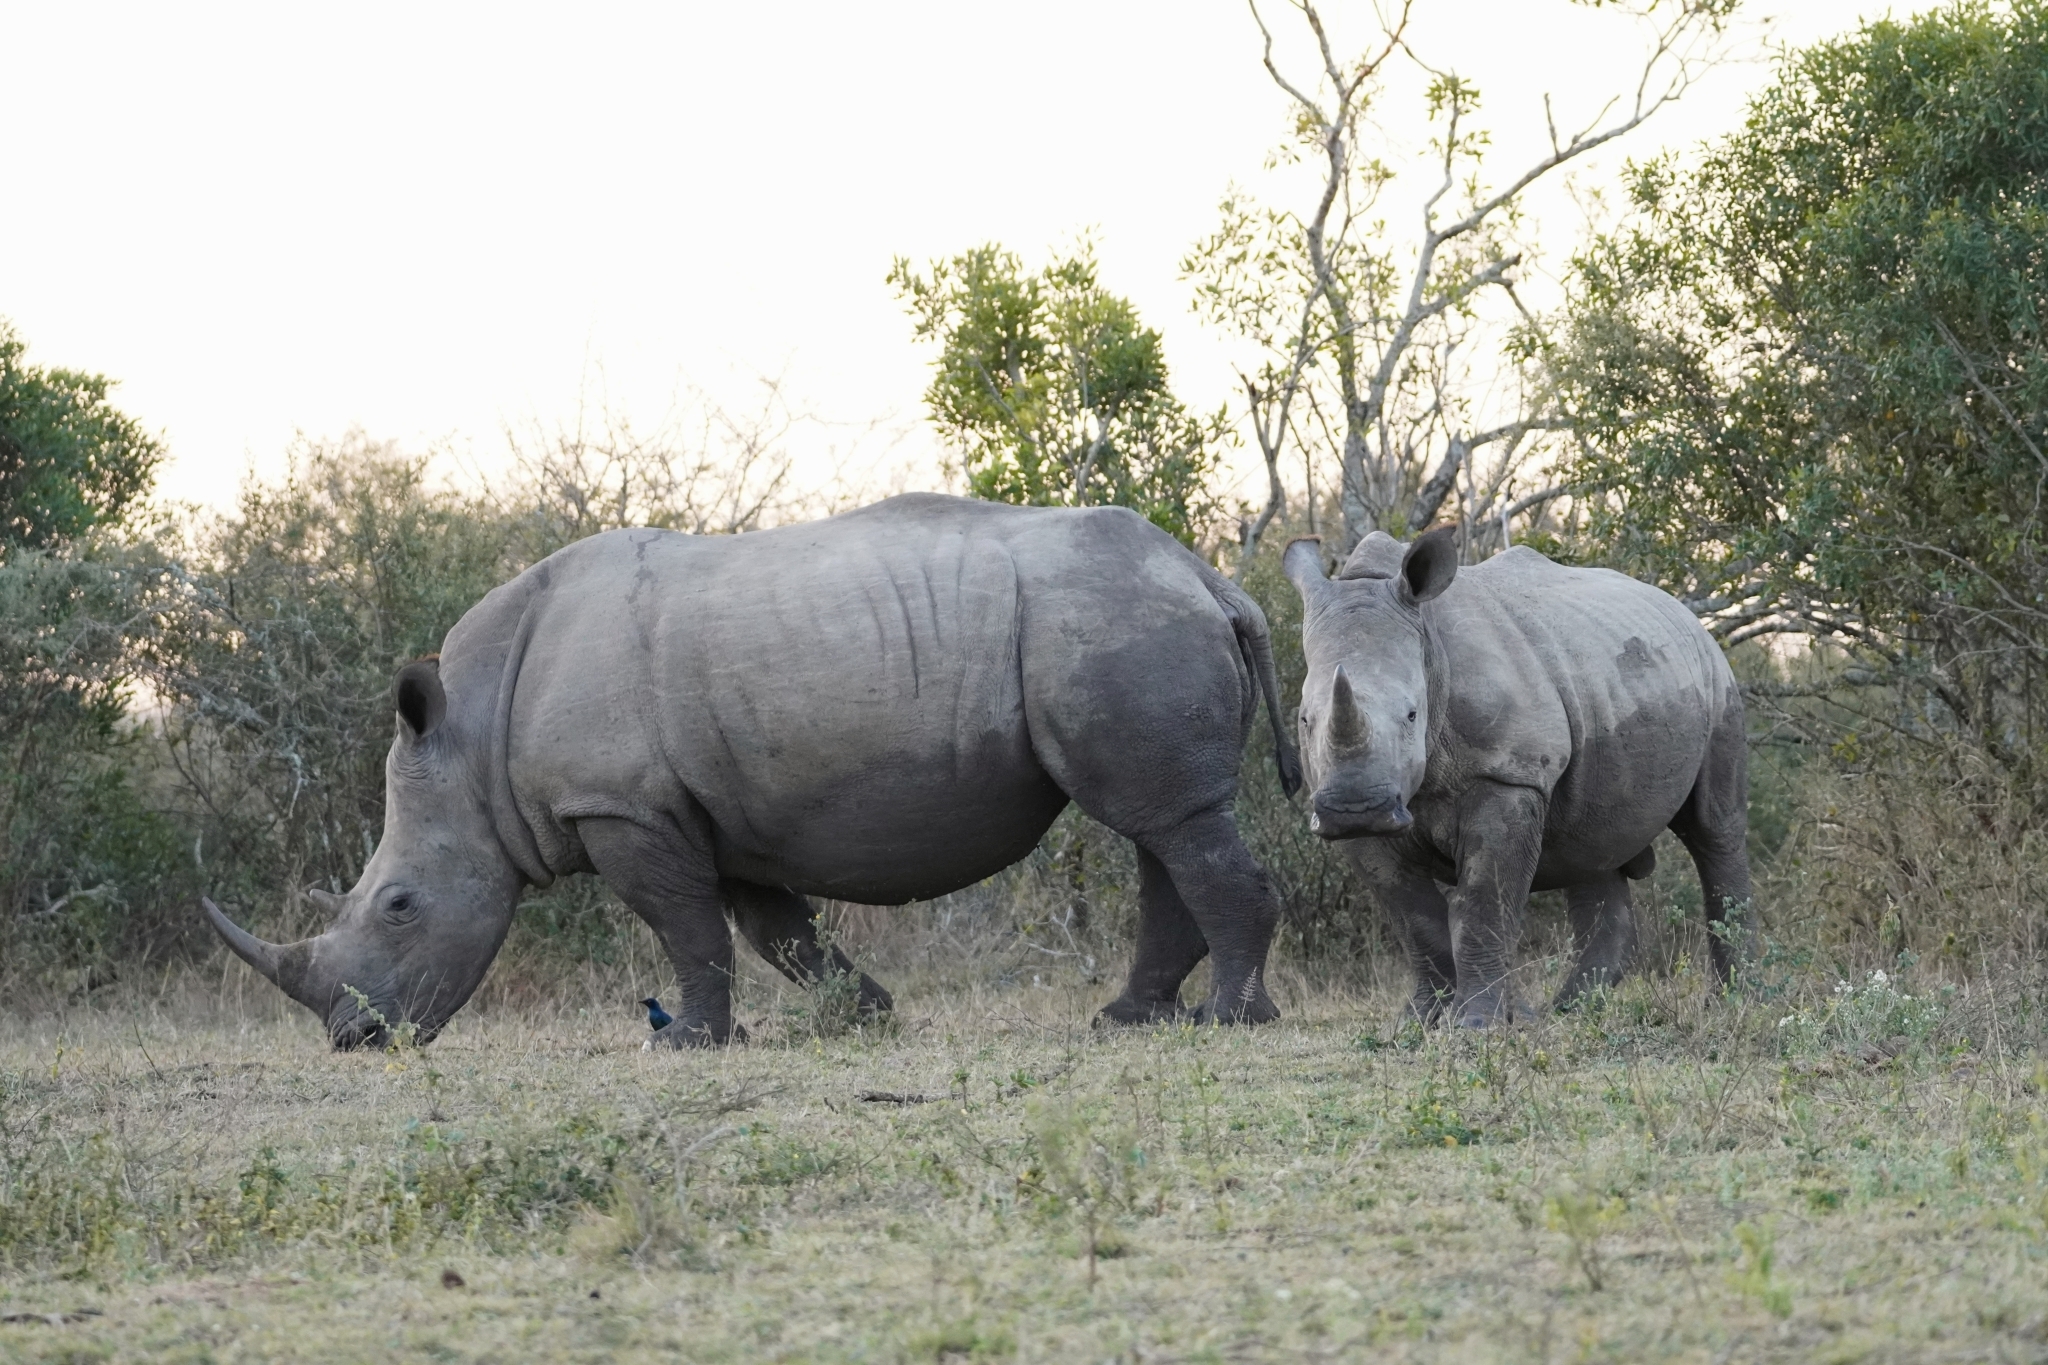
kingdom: Animalia
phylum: Chordata
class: Mammalia
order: Perissodactyla
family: Rhinocerotidae
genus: Ceratotherium
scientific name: Ceratotherium simum
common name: White rhinoceros
